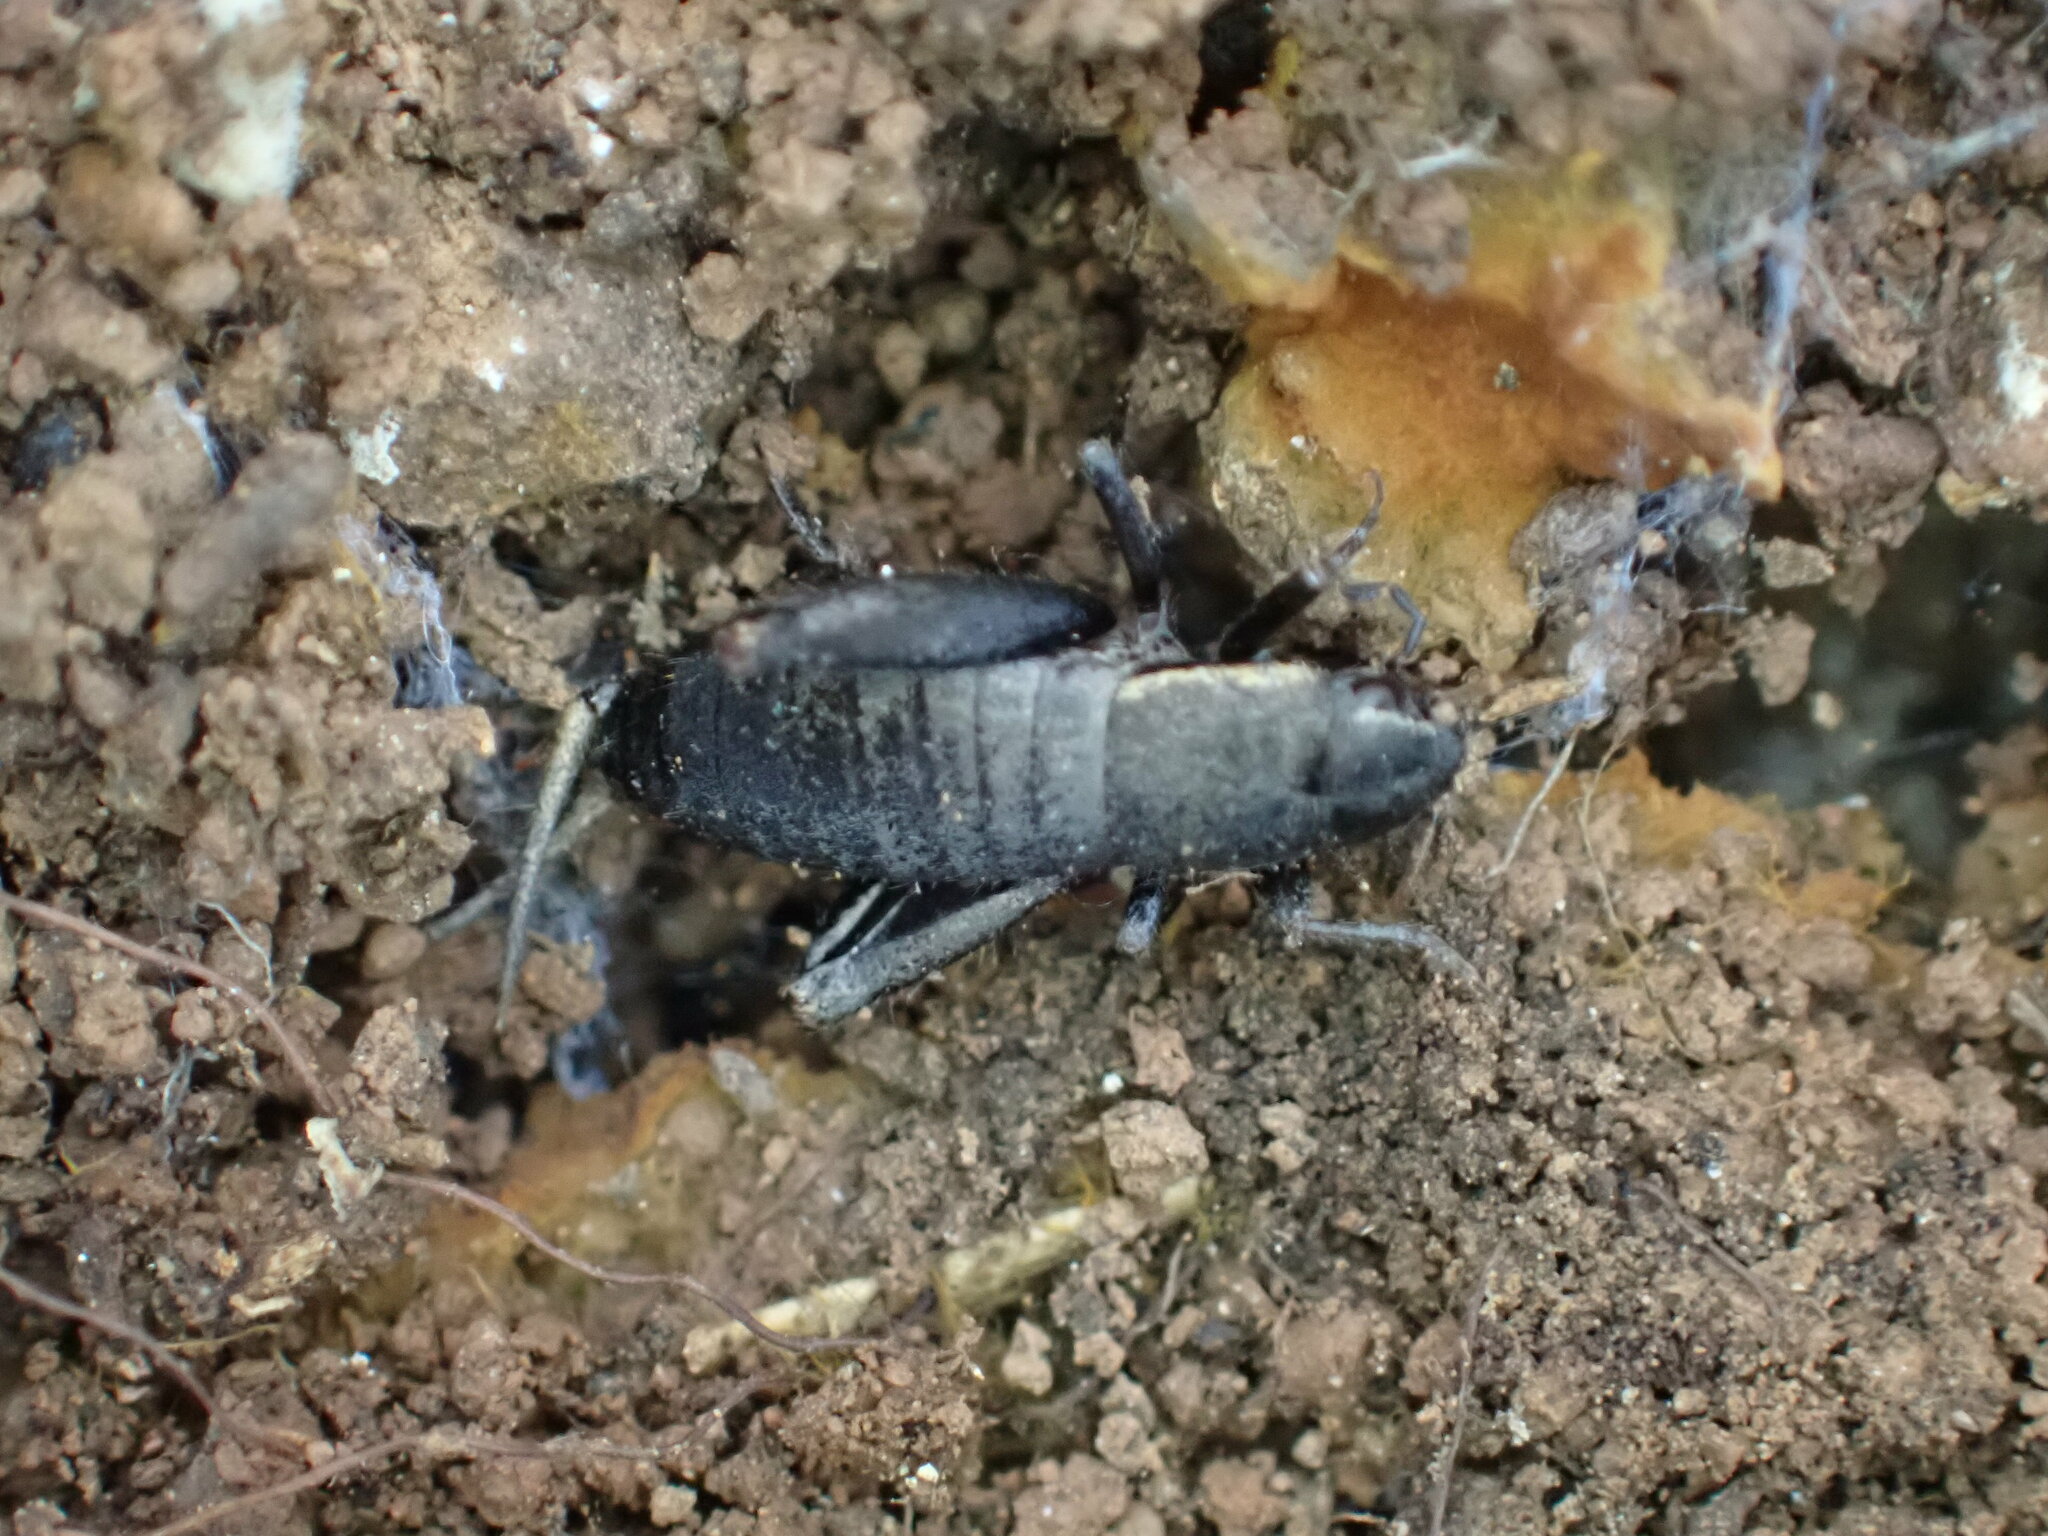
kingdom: Animalia
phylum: Arthropoda
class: Insecta
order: Orthoptera
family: Mogoplistidae
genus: Mogoplistes
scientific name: Mogoplistes brunneus
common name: Brown scale-cricket
